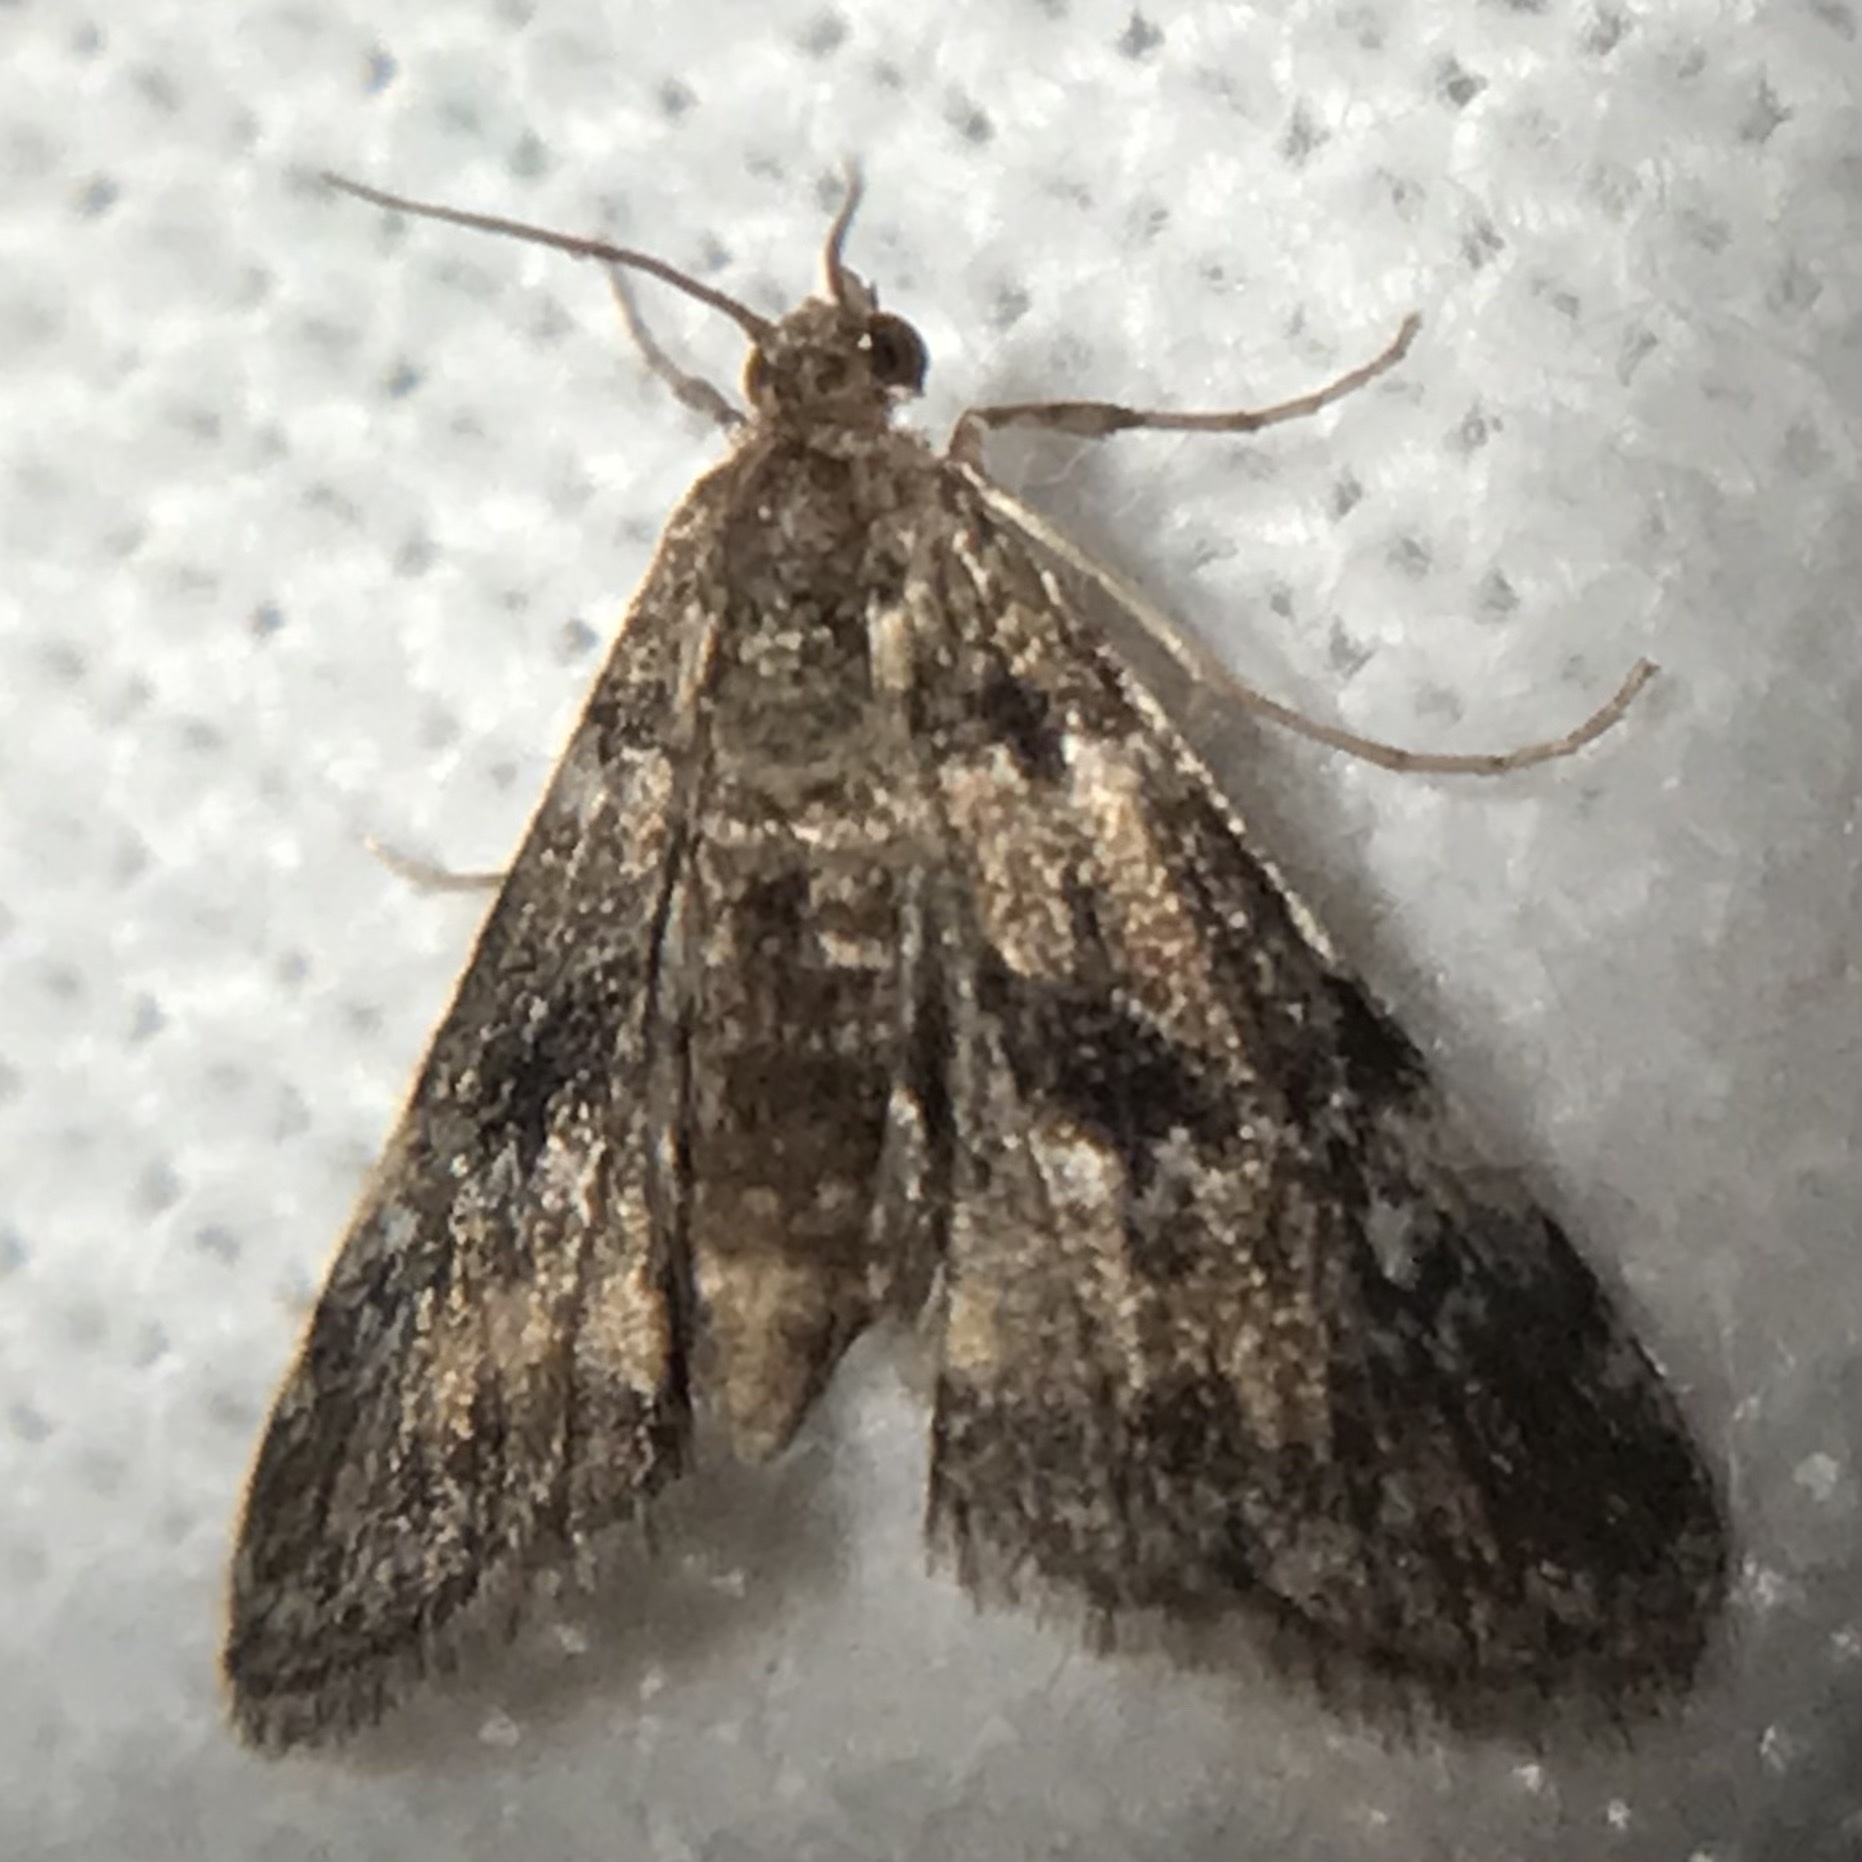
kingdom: Animalia
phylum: Arthropoda
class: Insecta
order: Lepidoptera
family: Crambidae
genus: Elophila
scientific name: Elophila obliteralis
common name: Waterlily leafcutter moth
